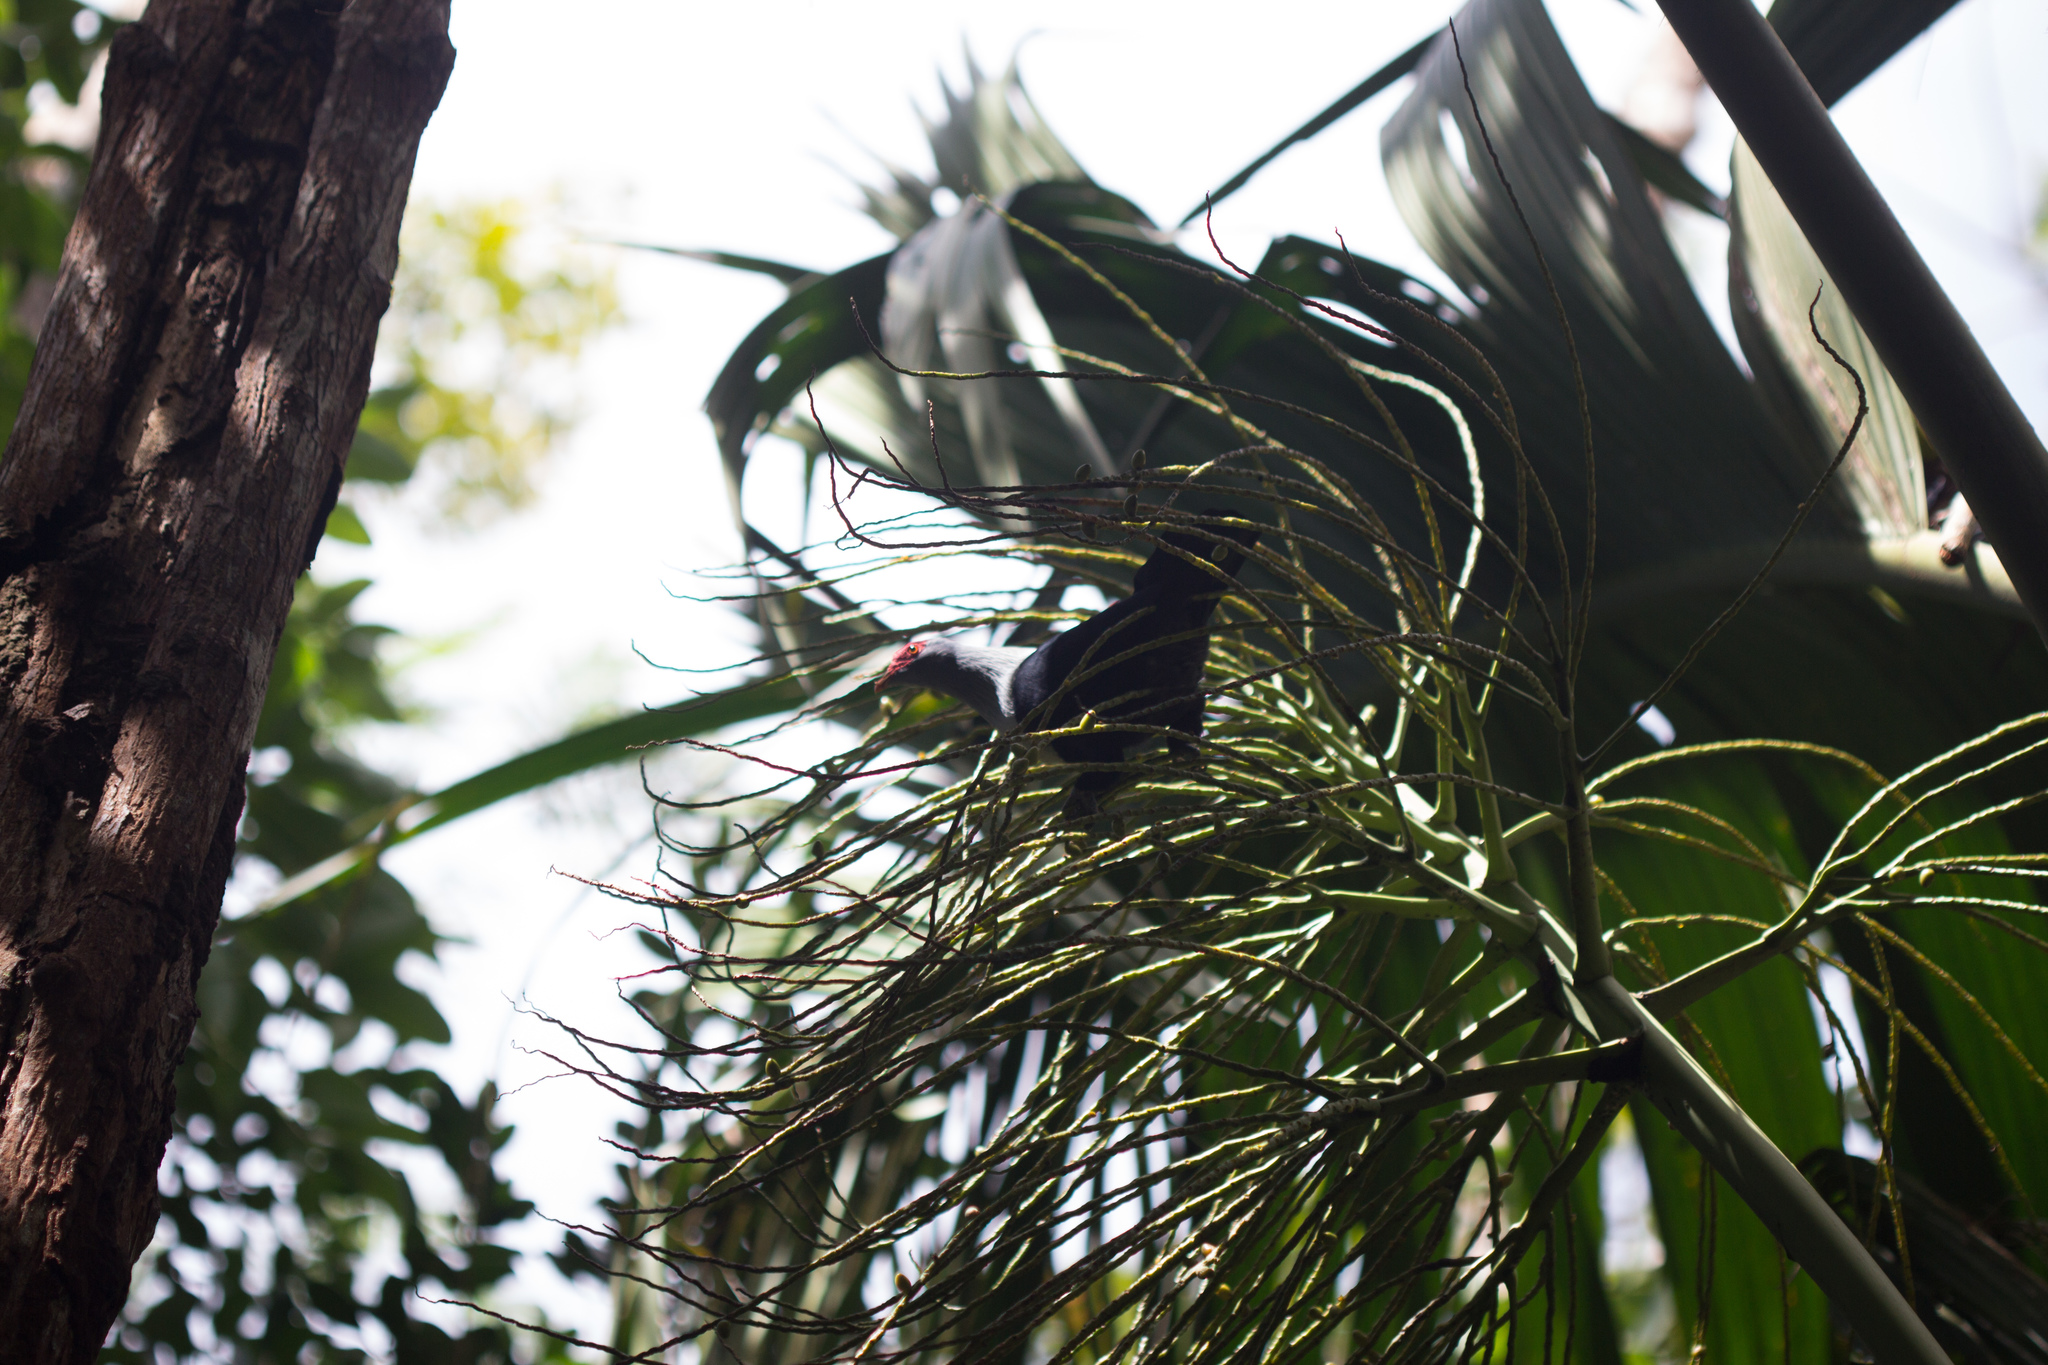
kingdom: Animalia
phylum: Chordata
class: Aves
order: Columbiformes
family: Columbidae
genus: Alectroenas
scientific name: Alectroenas pulcherrimus
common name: Seychelles blue pigeon
